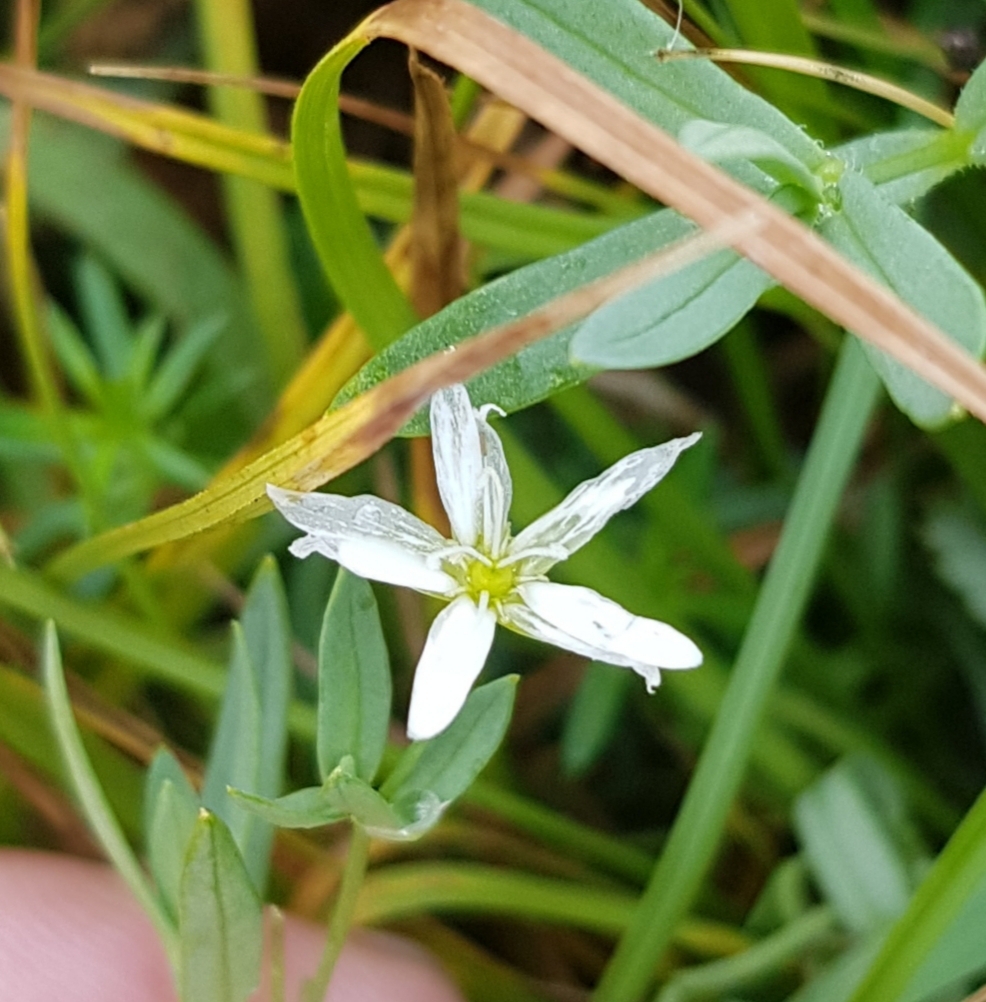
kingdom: Plantae
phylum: Tracheophyta
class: Magnoliopsida
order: Caryophyllales
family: Caryophyllaceae
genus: Stellaria
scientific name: Stellaria graminea
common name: Grass-like starwort
